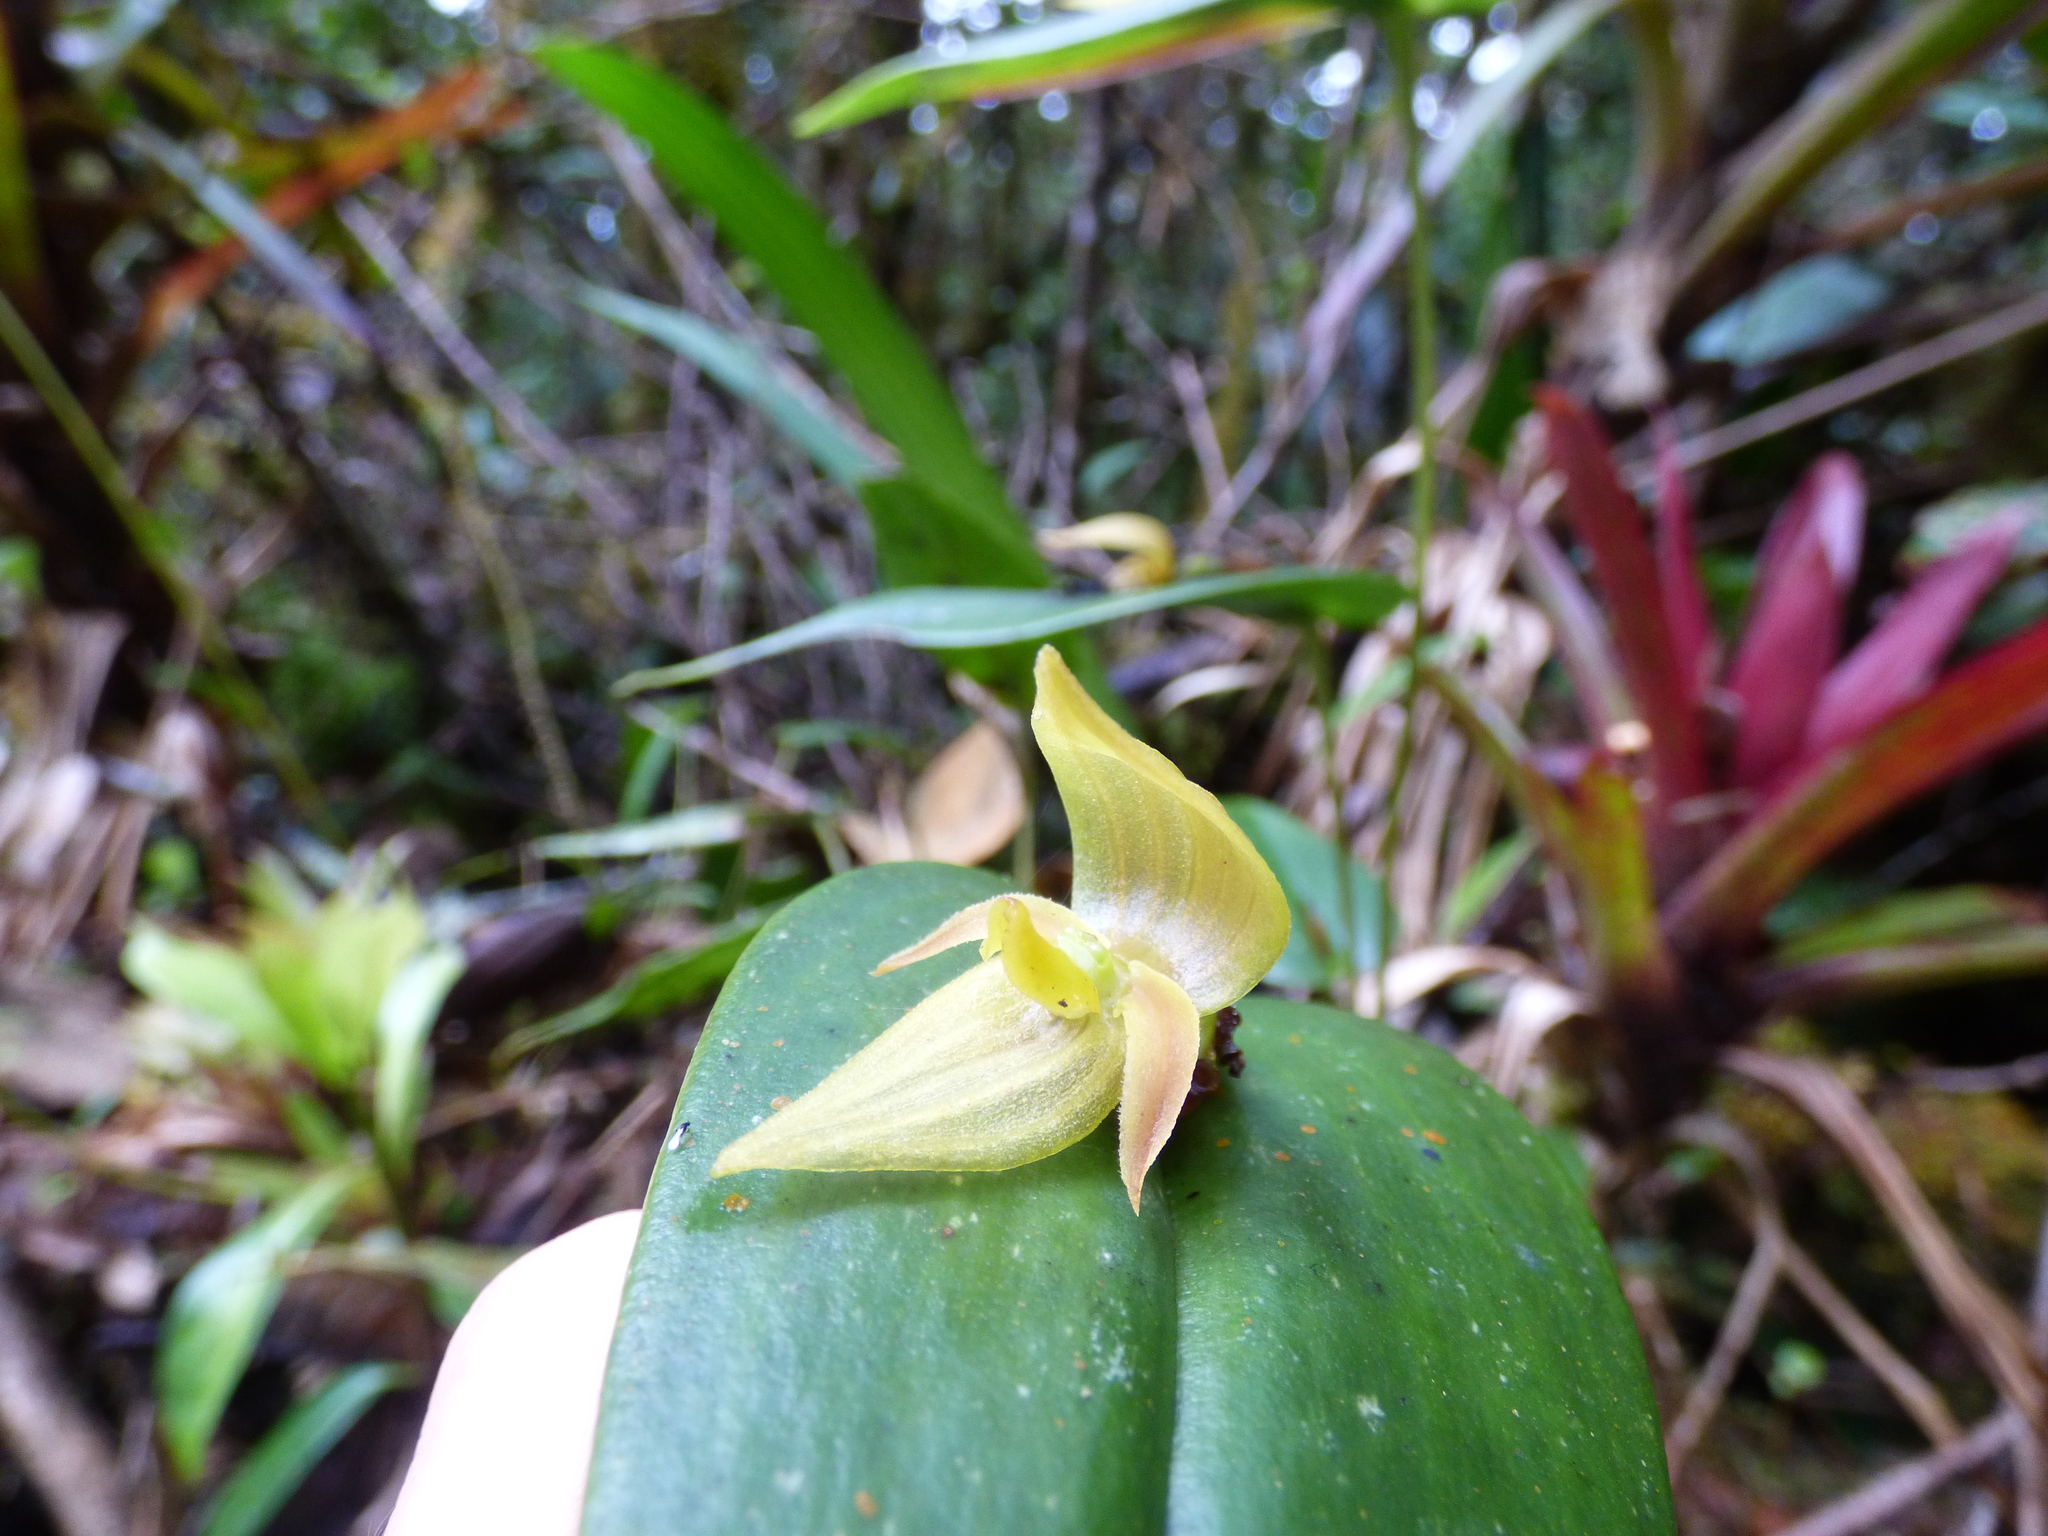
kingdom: Plantae
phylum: Tracheophyta
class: Liliopsida
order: Asparagales
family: Orchidaceae
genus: Pleurothallis
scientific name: Pleurothallis siphoglossa
